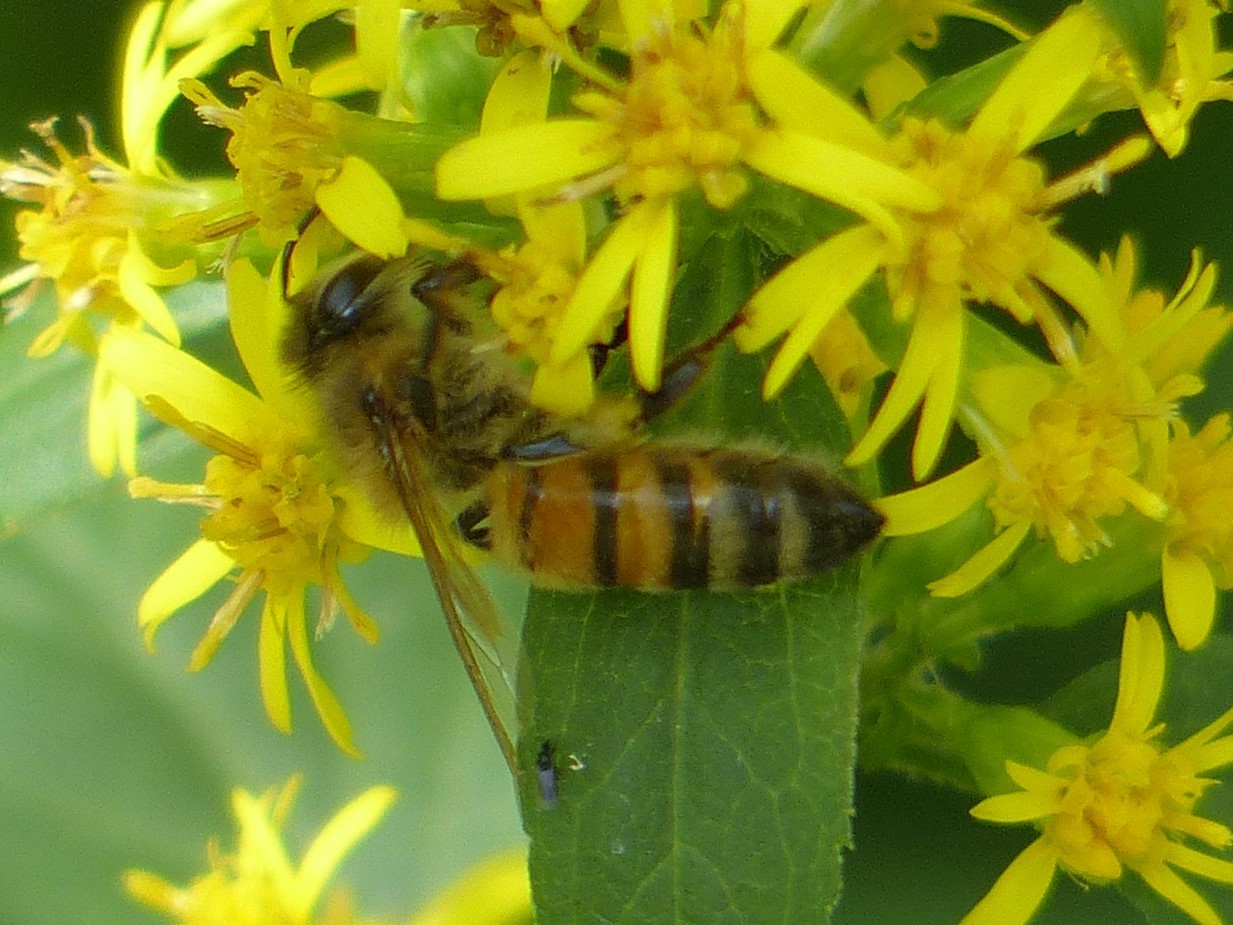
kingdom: Animalia
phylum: Arthropoda
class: Insecta
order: Hymenoptera
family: Apidae
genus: Apis
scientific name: Apis mellifera
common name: Honey bee
